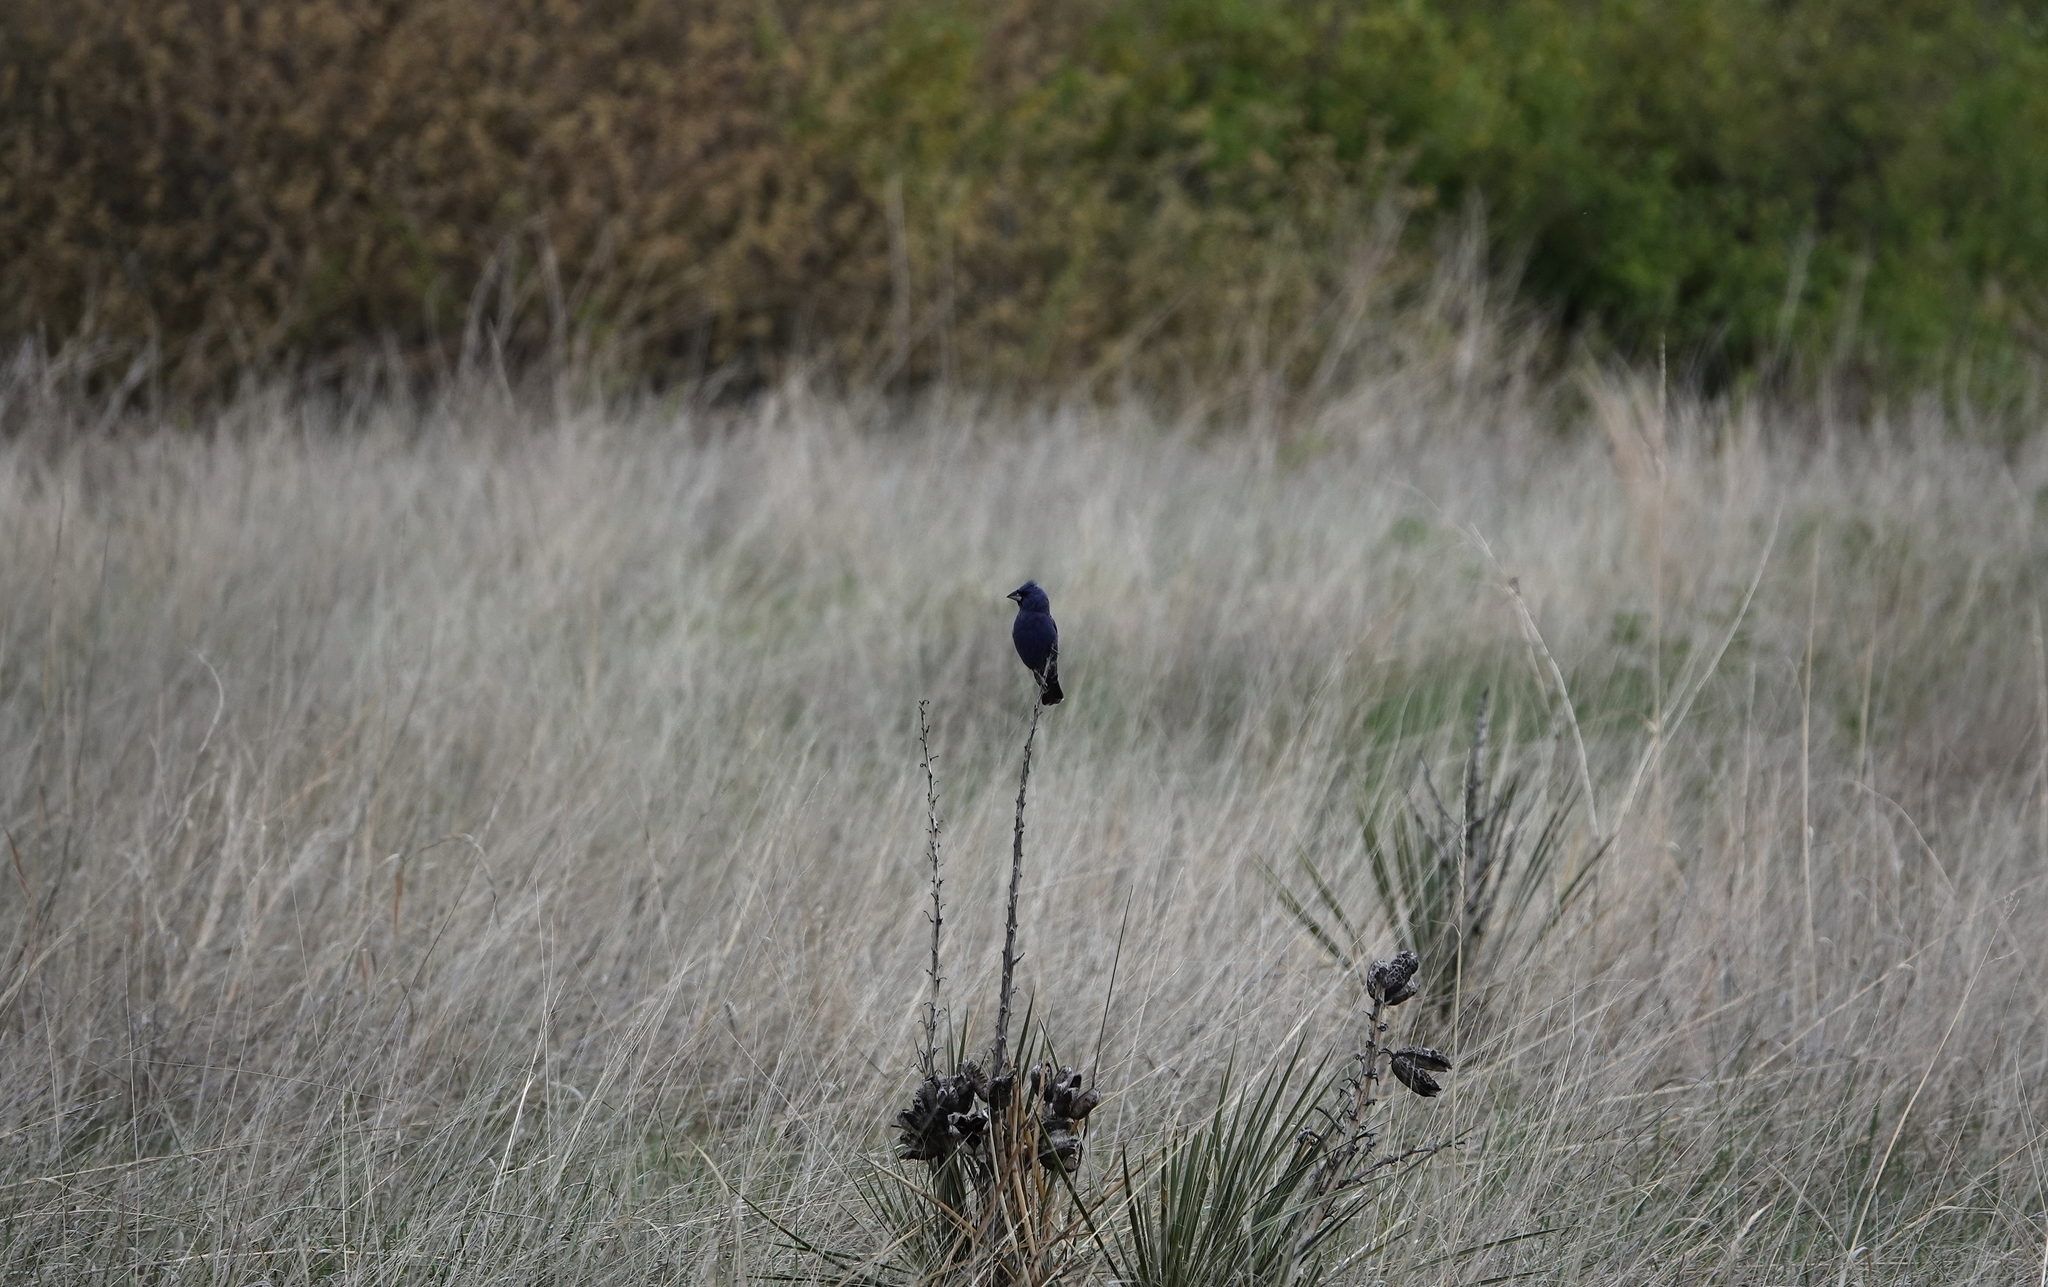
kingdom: Animalia
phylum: Chordata
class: Aves
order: Passeriformes
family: Cardinalidae
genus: Passerina
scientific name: Passerina caerulea
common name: Blue grosbeak
